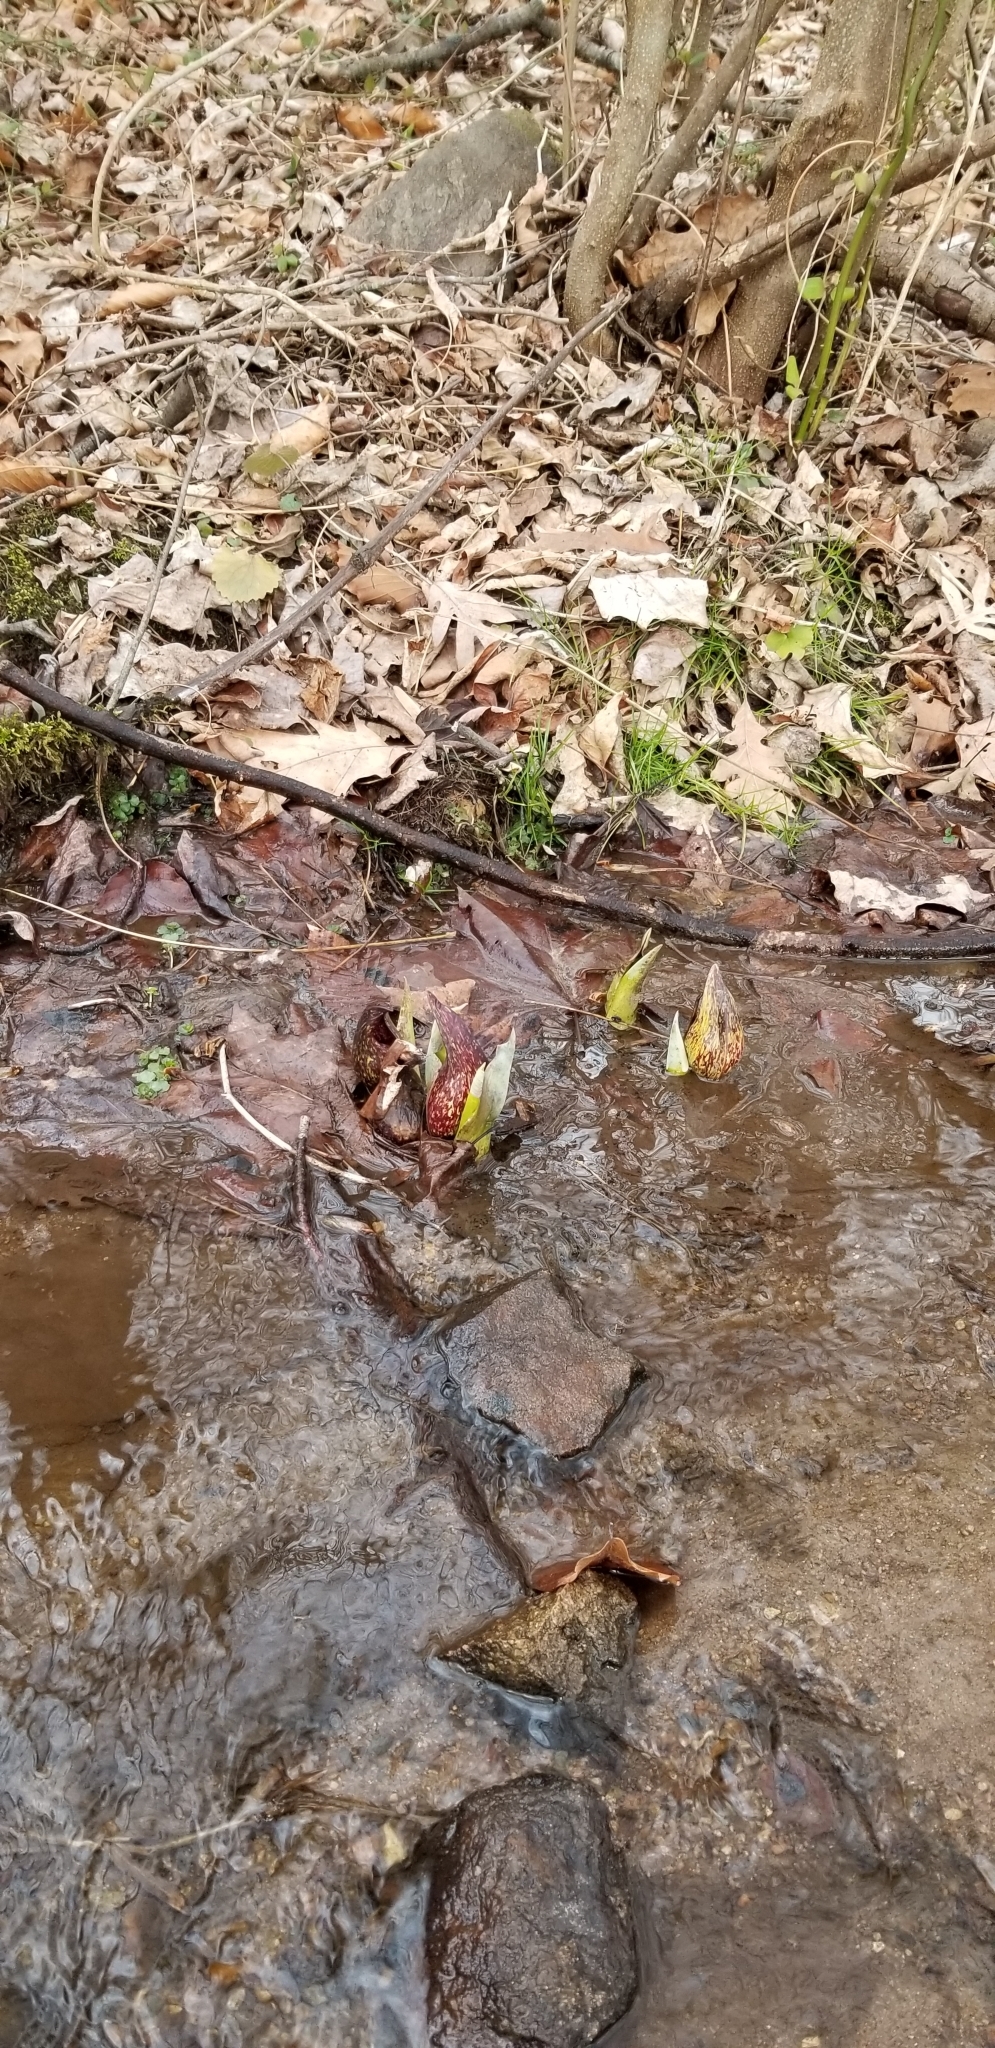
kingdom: Plantae
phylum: Tracheophyta
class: Liliopsida
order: Alismatales
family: Araceae
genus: Symplocarpus
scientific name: Symplocarpus foetidus
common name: Eastern skunk cabbage
